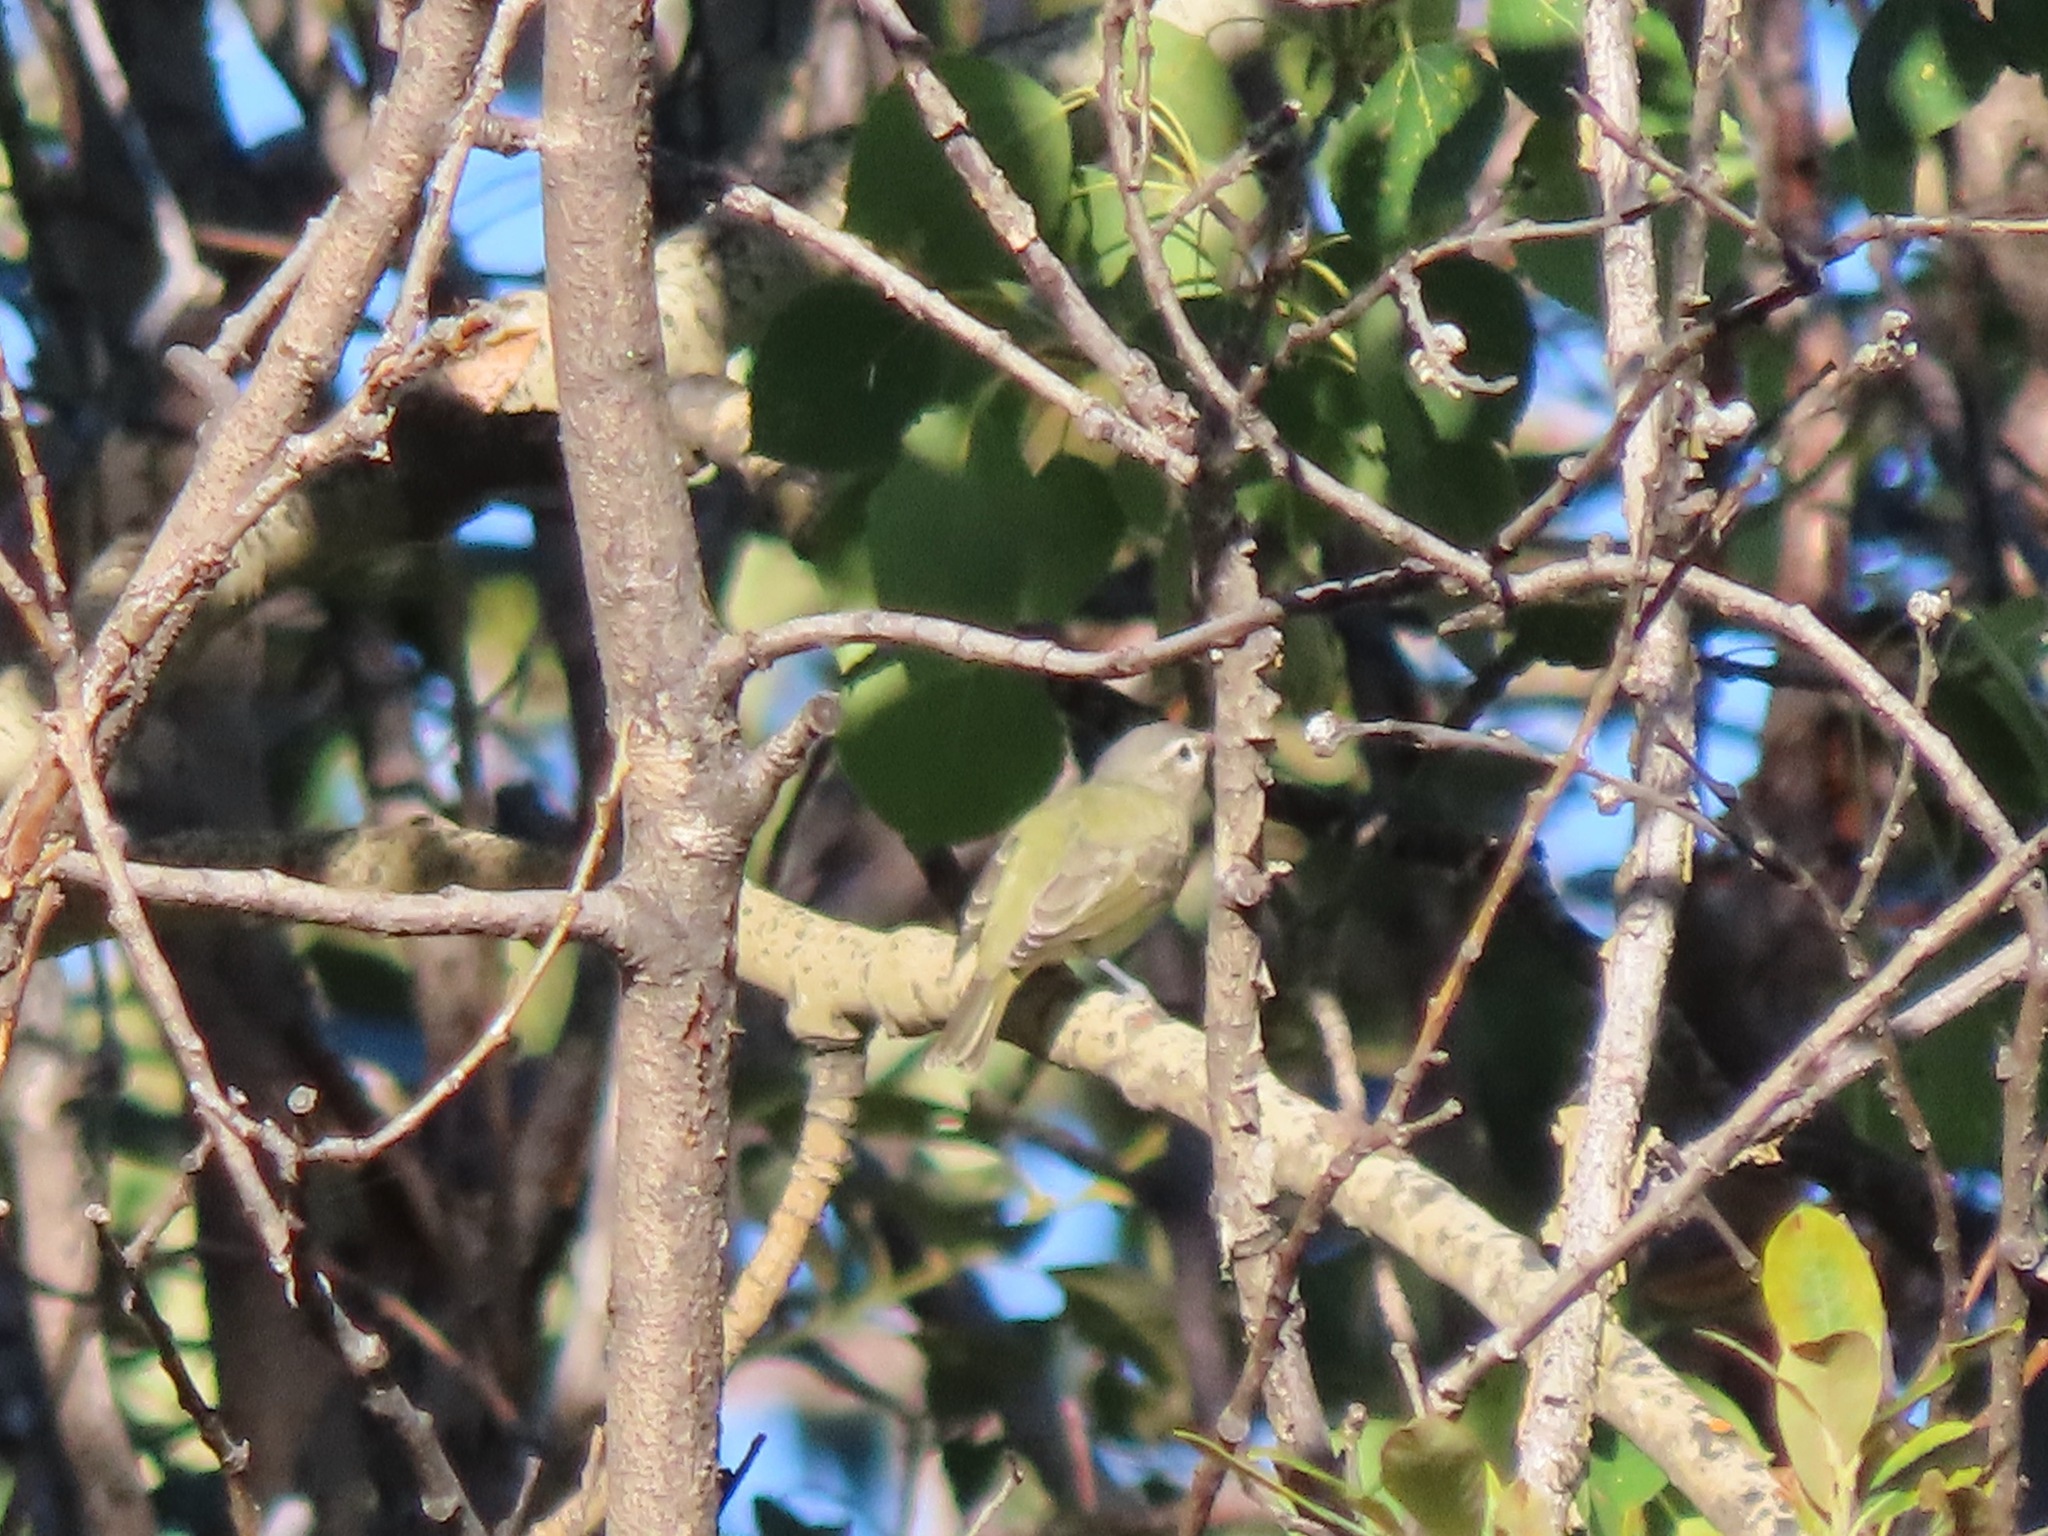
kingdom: Animalia
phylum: Chordata
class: Aves
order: Passeriformes
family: Vireonidae
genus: Vireo
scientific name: Vireo gilvus
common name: Warbling vireo
